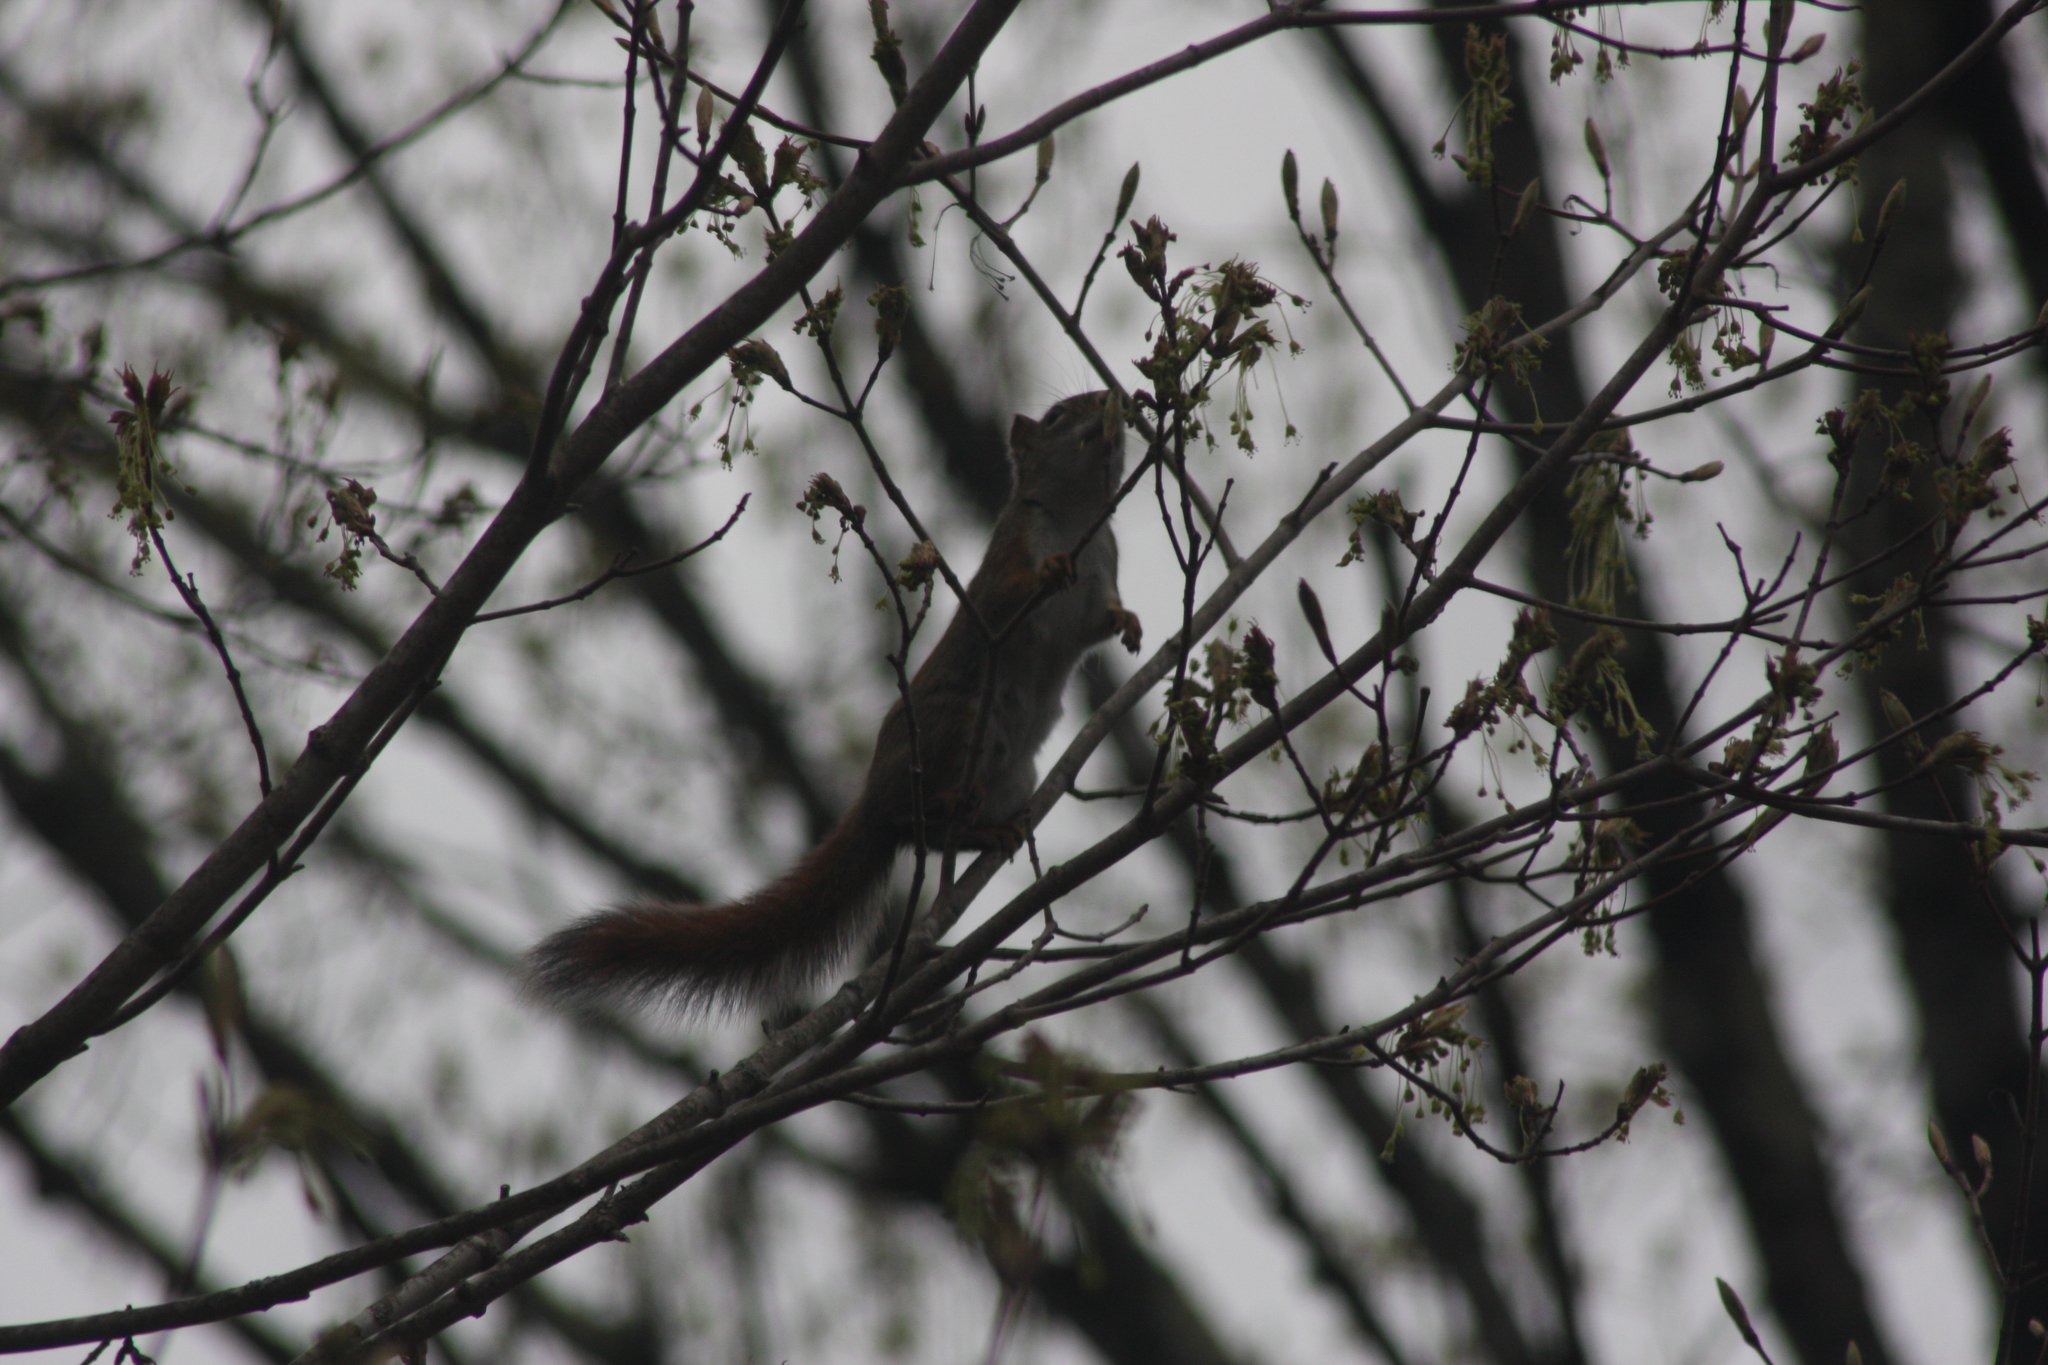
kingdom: Animalia
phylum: Chordata
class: Mammalia
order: Rodentia
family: Sciuridae
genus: Tamiasciurus
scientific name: Tamiasciurus hudsonicus
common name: Red squirrel
